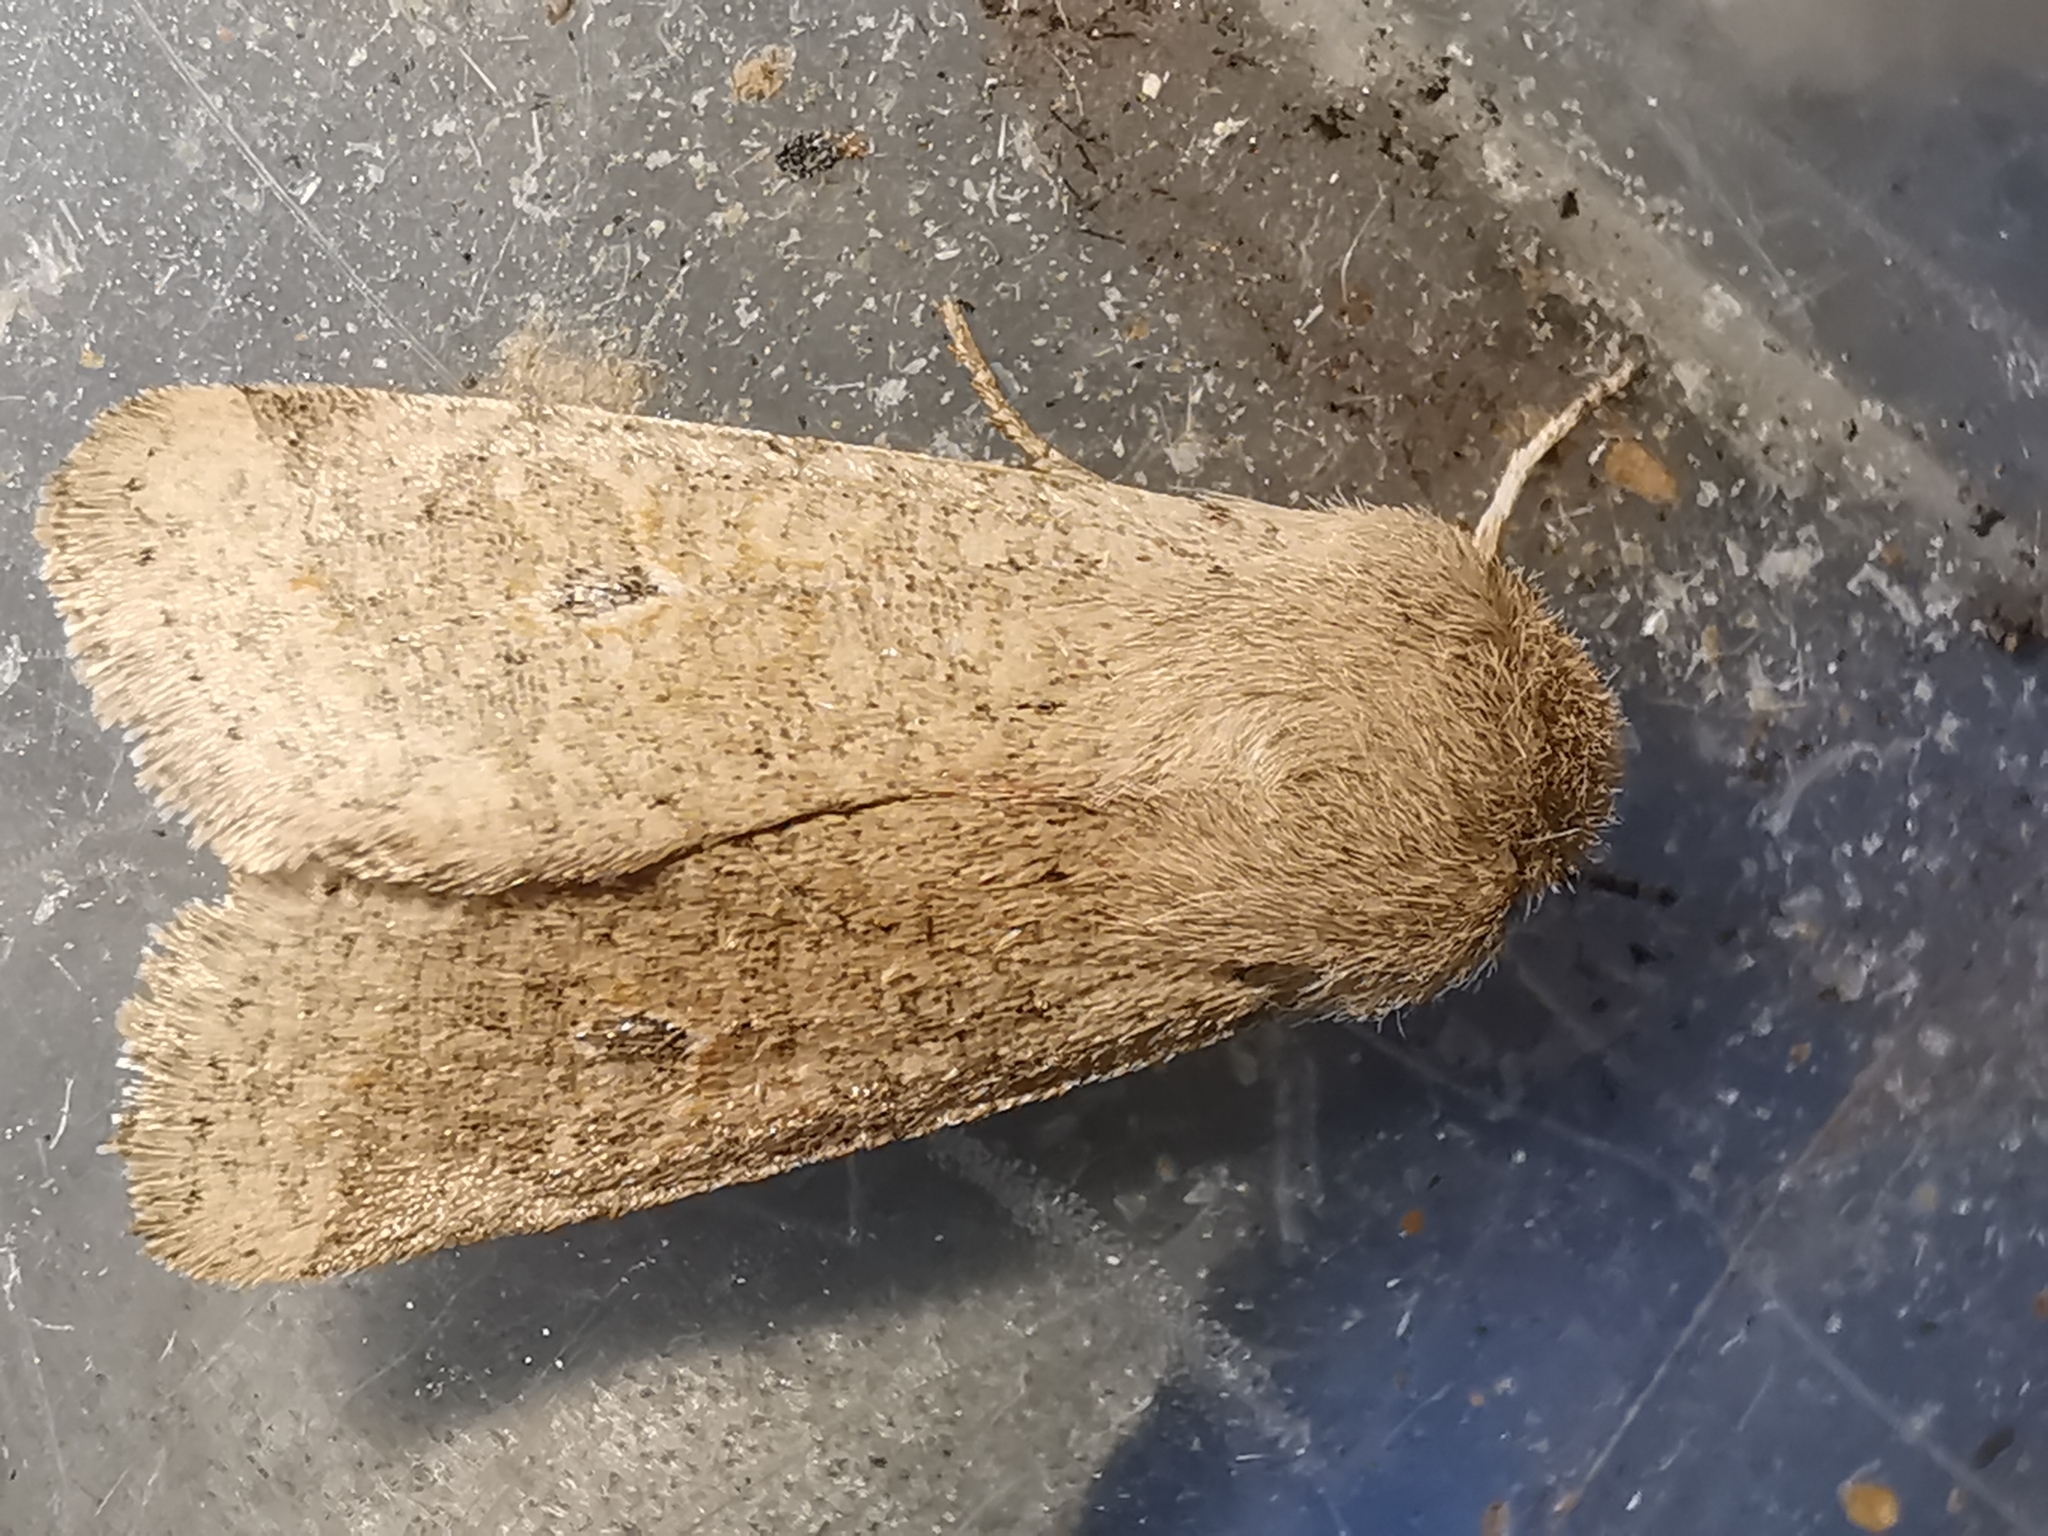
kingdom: Animalia
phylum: Arthropoda
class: Insecta
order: Lepidoptera
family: Noctuidae
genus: Orthosia
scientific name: Orthosia cruda
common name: Small quaker
